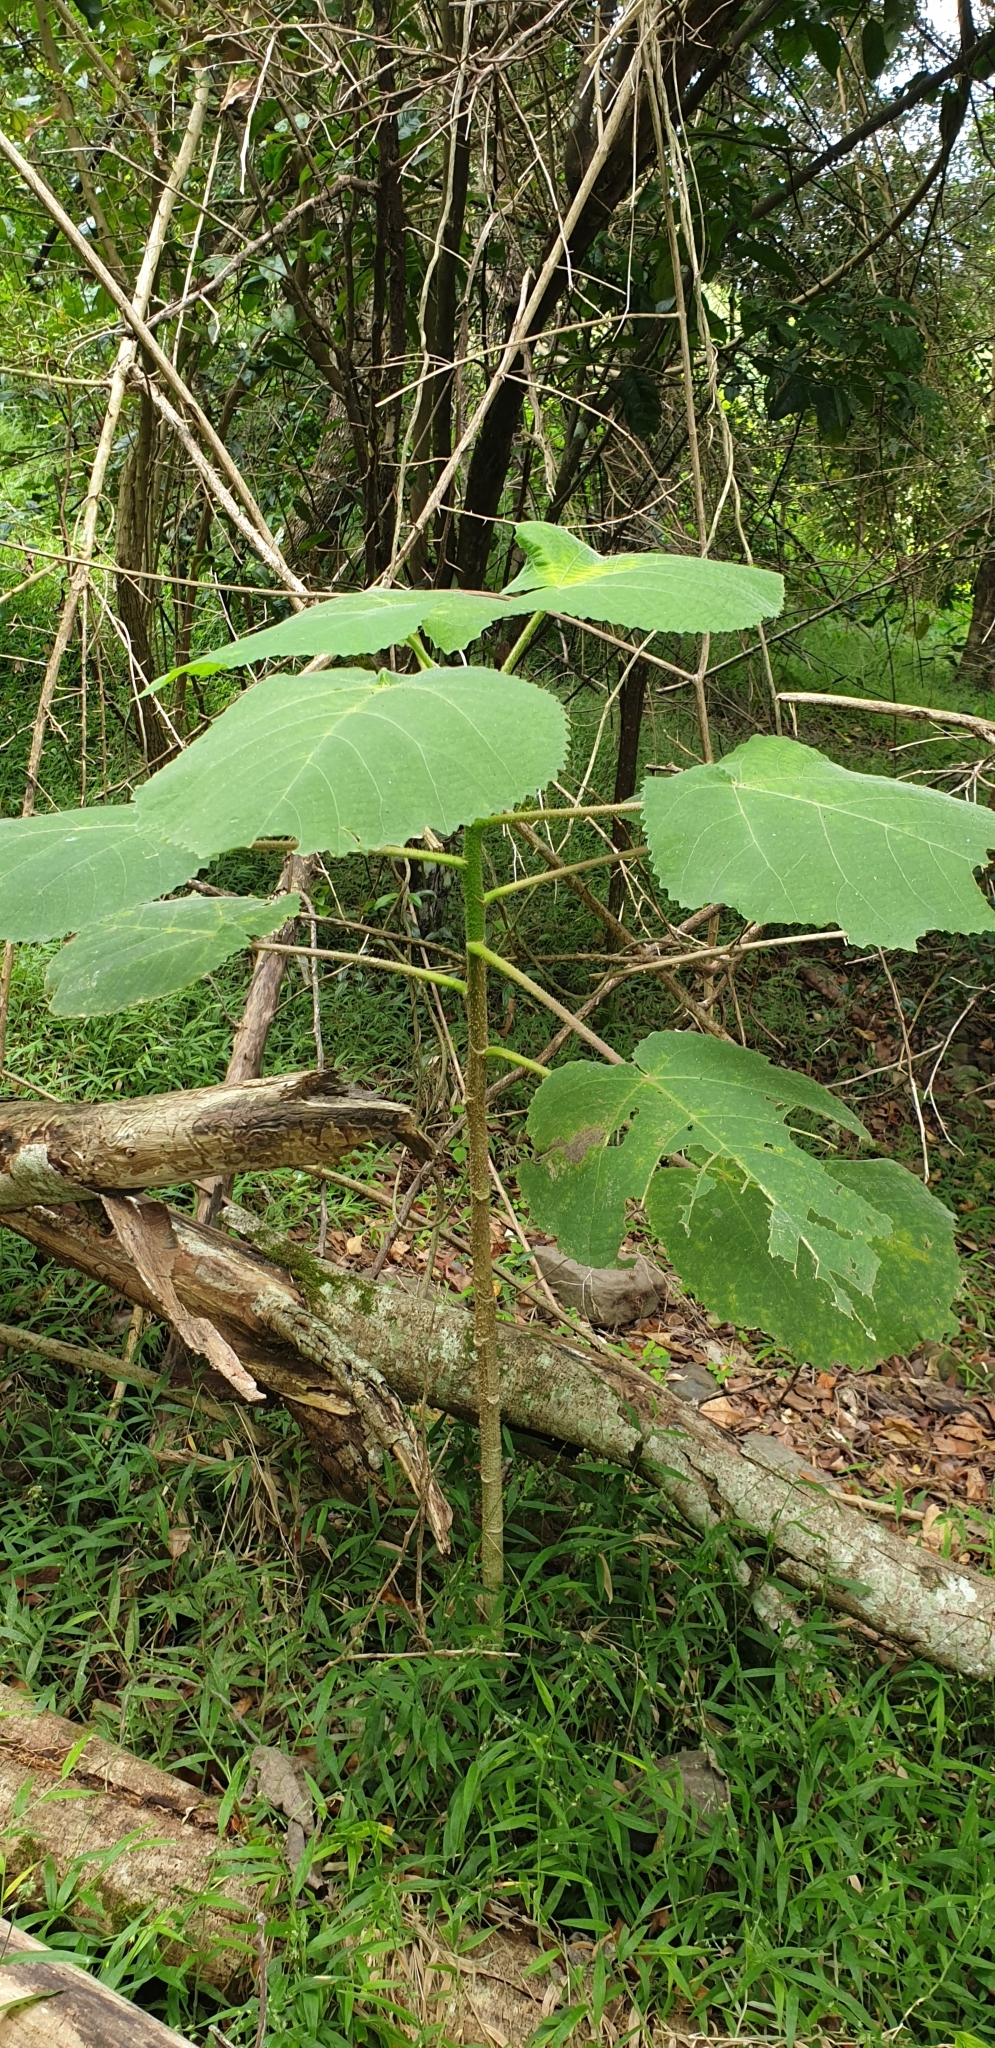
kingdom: Plantae
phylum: Tracheophyta
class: Magnoliopsida
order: Rosales
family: Urticaceae
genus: Dendrocnide
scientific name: Dendrocnide excelsa
